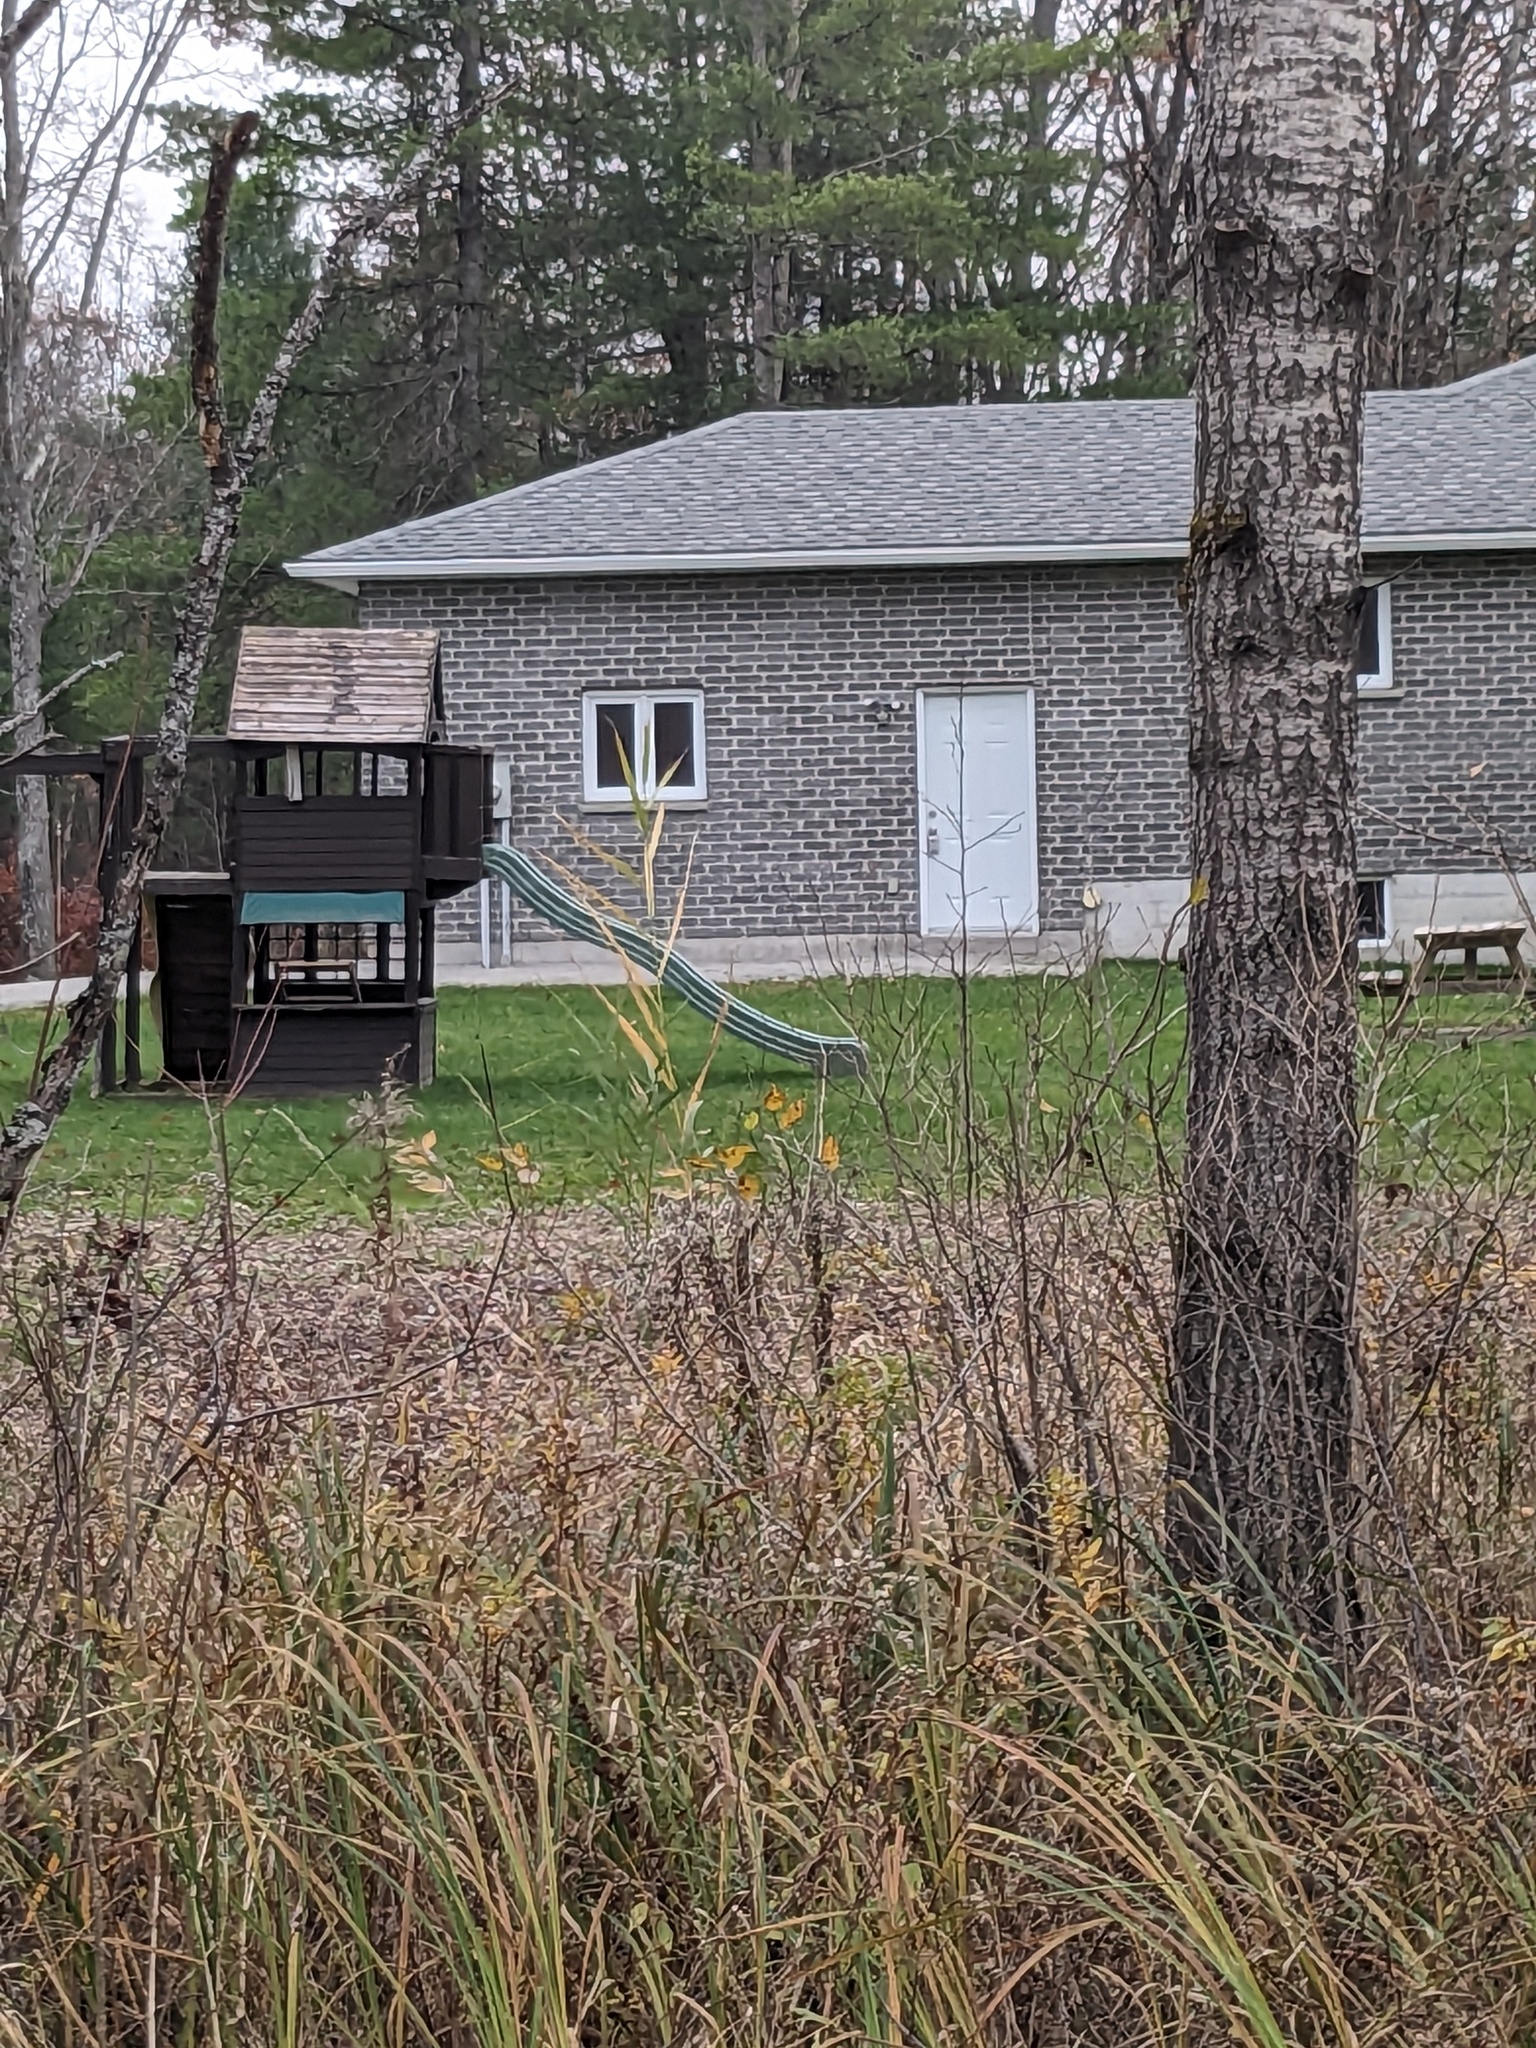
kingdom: Plantae
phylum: Tracheophyta
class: Liliopsida
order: Poales
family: Poaceae
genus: Phragmites
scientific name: Phragmites australis
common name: Common reed
